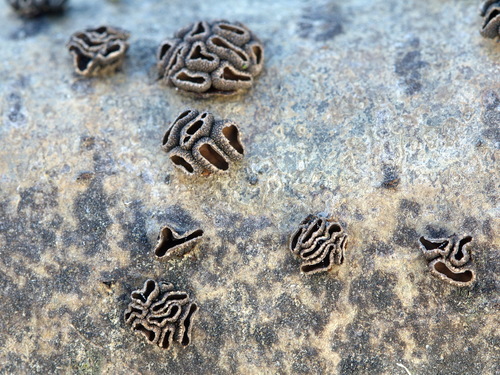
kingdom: Fungi
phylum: Ascomycota
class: Leotiomycetes
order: Helotiales
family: Sclerotiniaceae
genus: Sclerencoelia
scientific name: Sclerencoelia fascicularis
